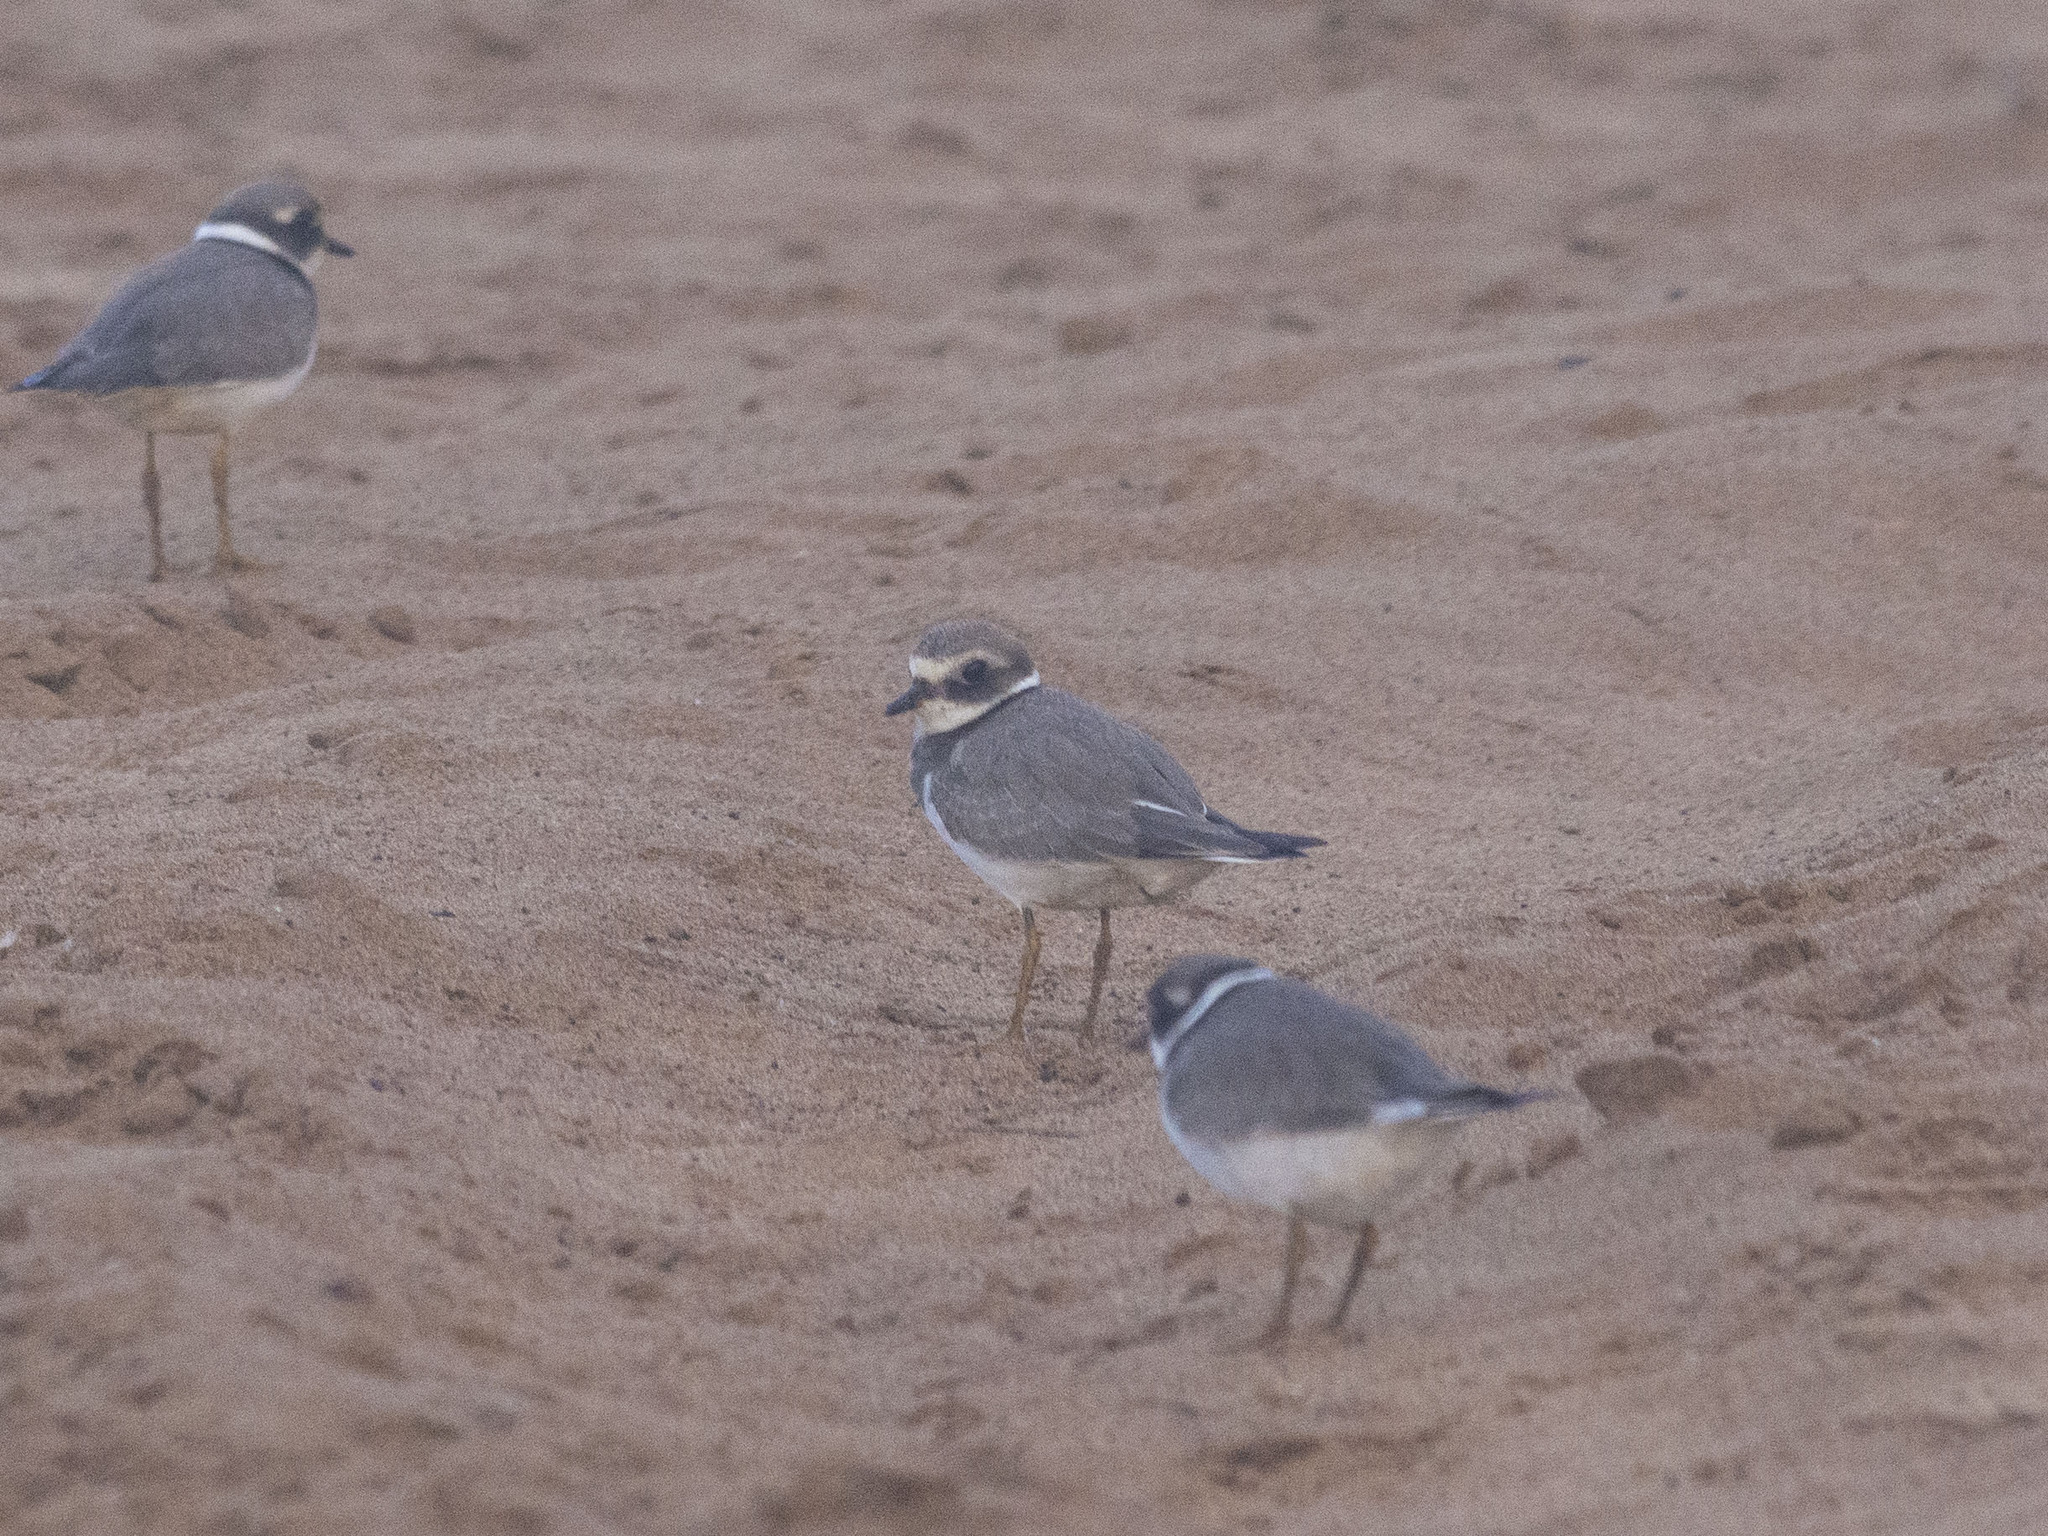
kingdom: Animalia
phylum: Chordata
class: Aves
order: Charadriiformes
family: Charadriidae
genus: Charadrius
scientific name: Charadrius hiaticula
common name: Common ringed plover
